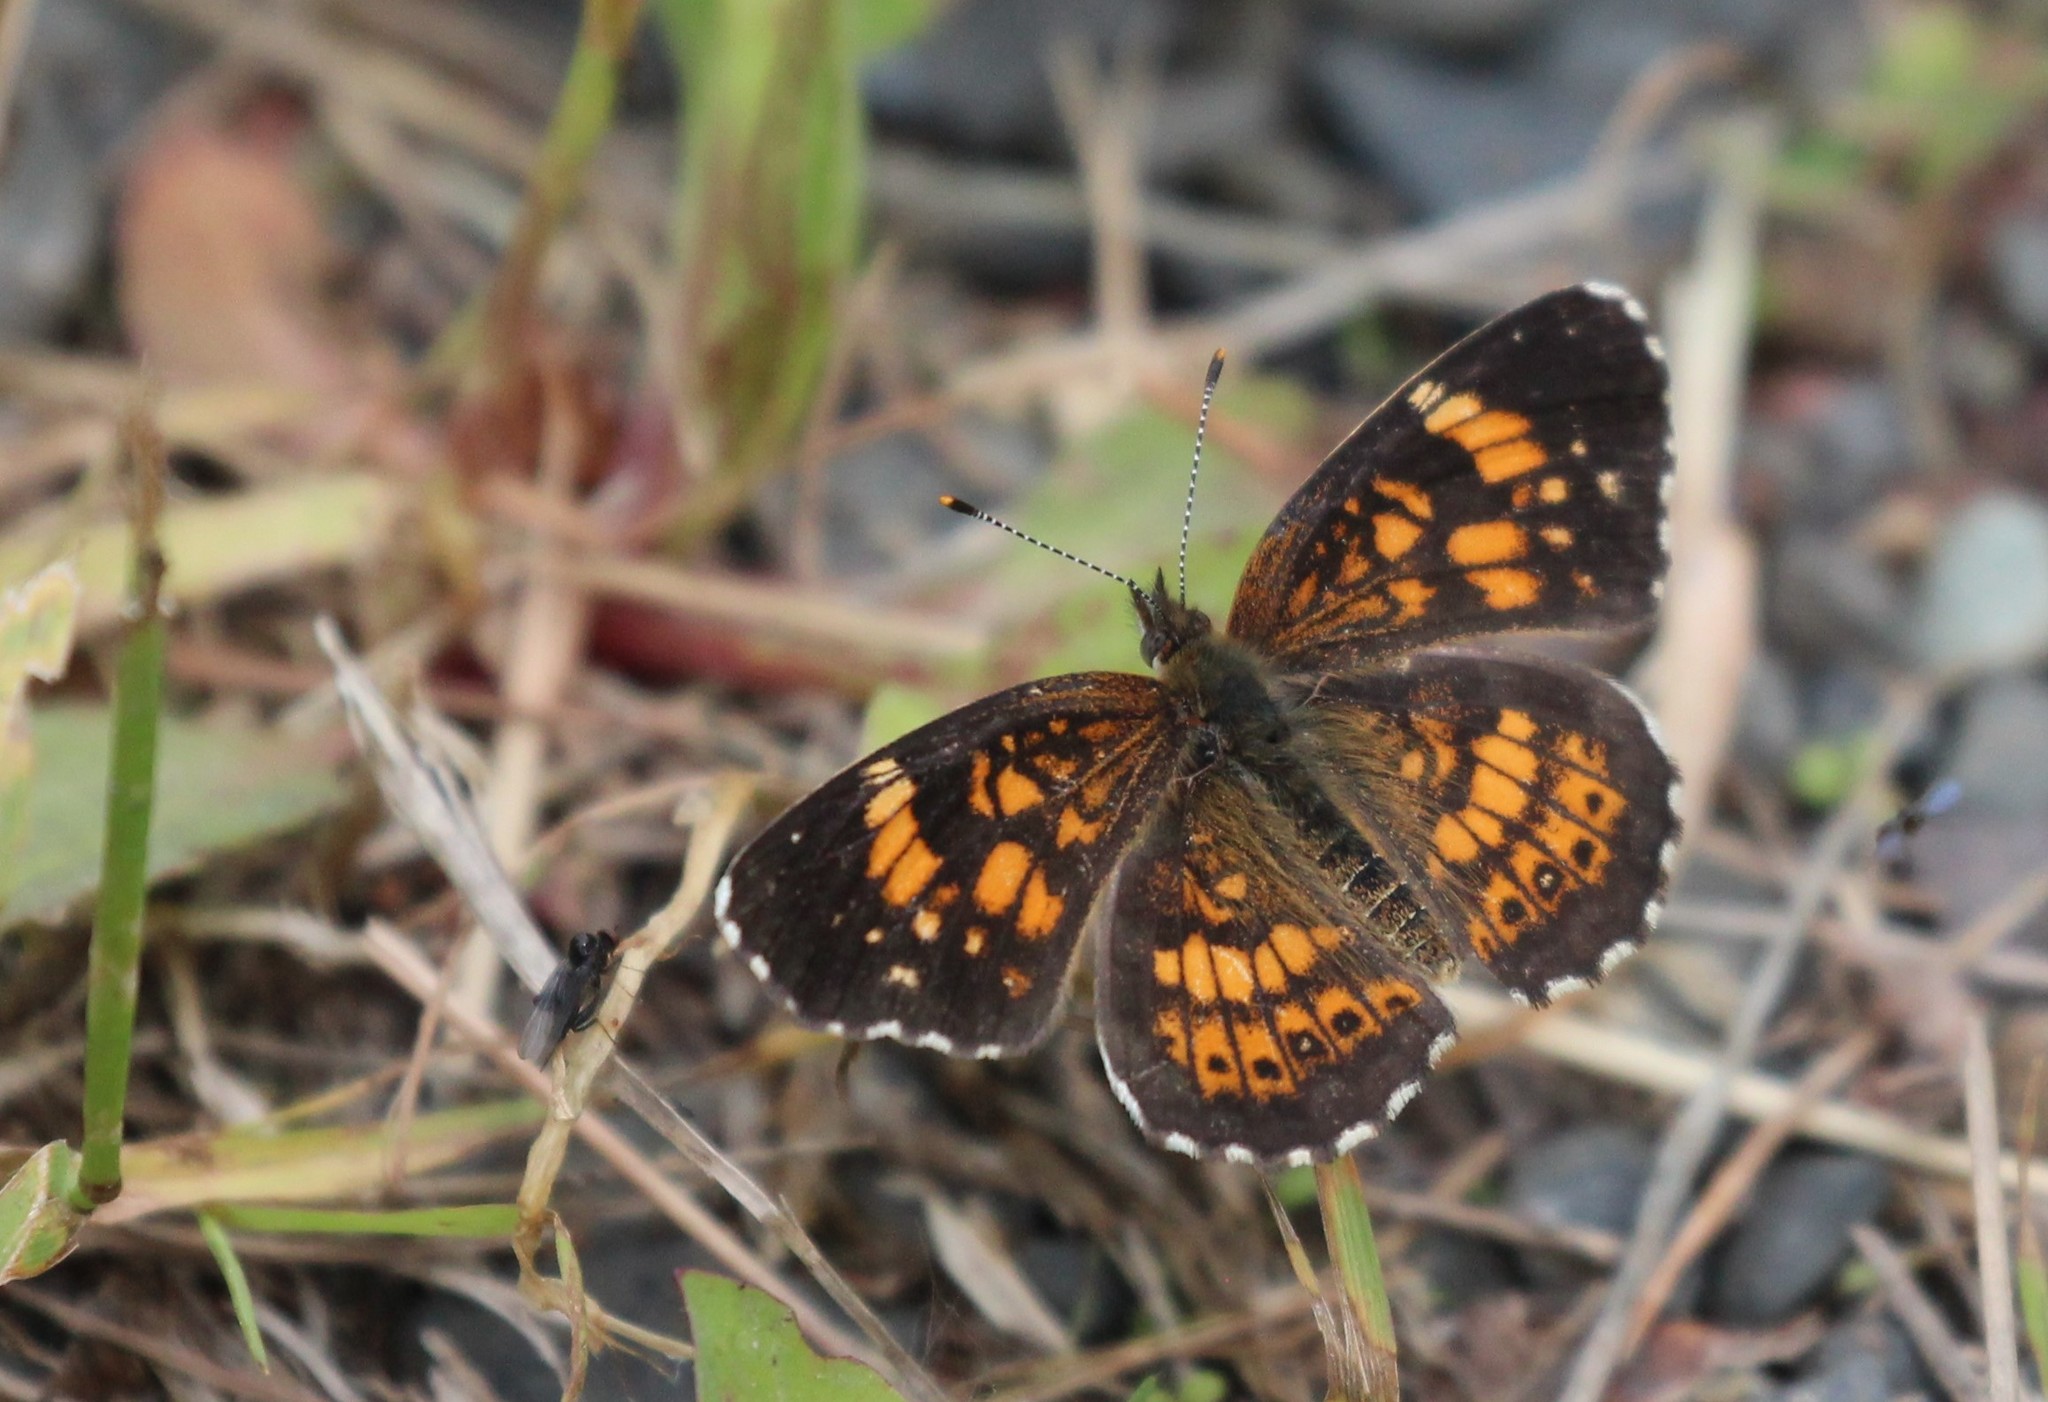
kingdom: Animalia
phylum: Arthropoda
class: Insecta
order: Lepidoptera
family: Nymphalidae
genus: Chlosyne
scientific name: Chlosyne nycteis
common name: Silvery checkerspot
